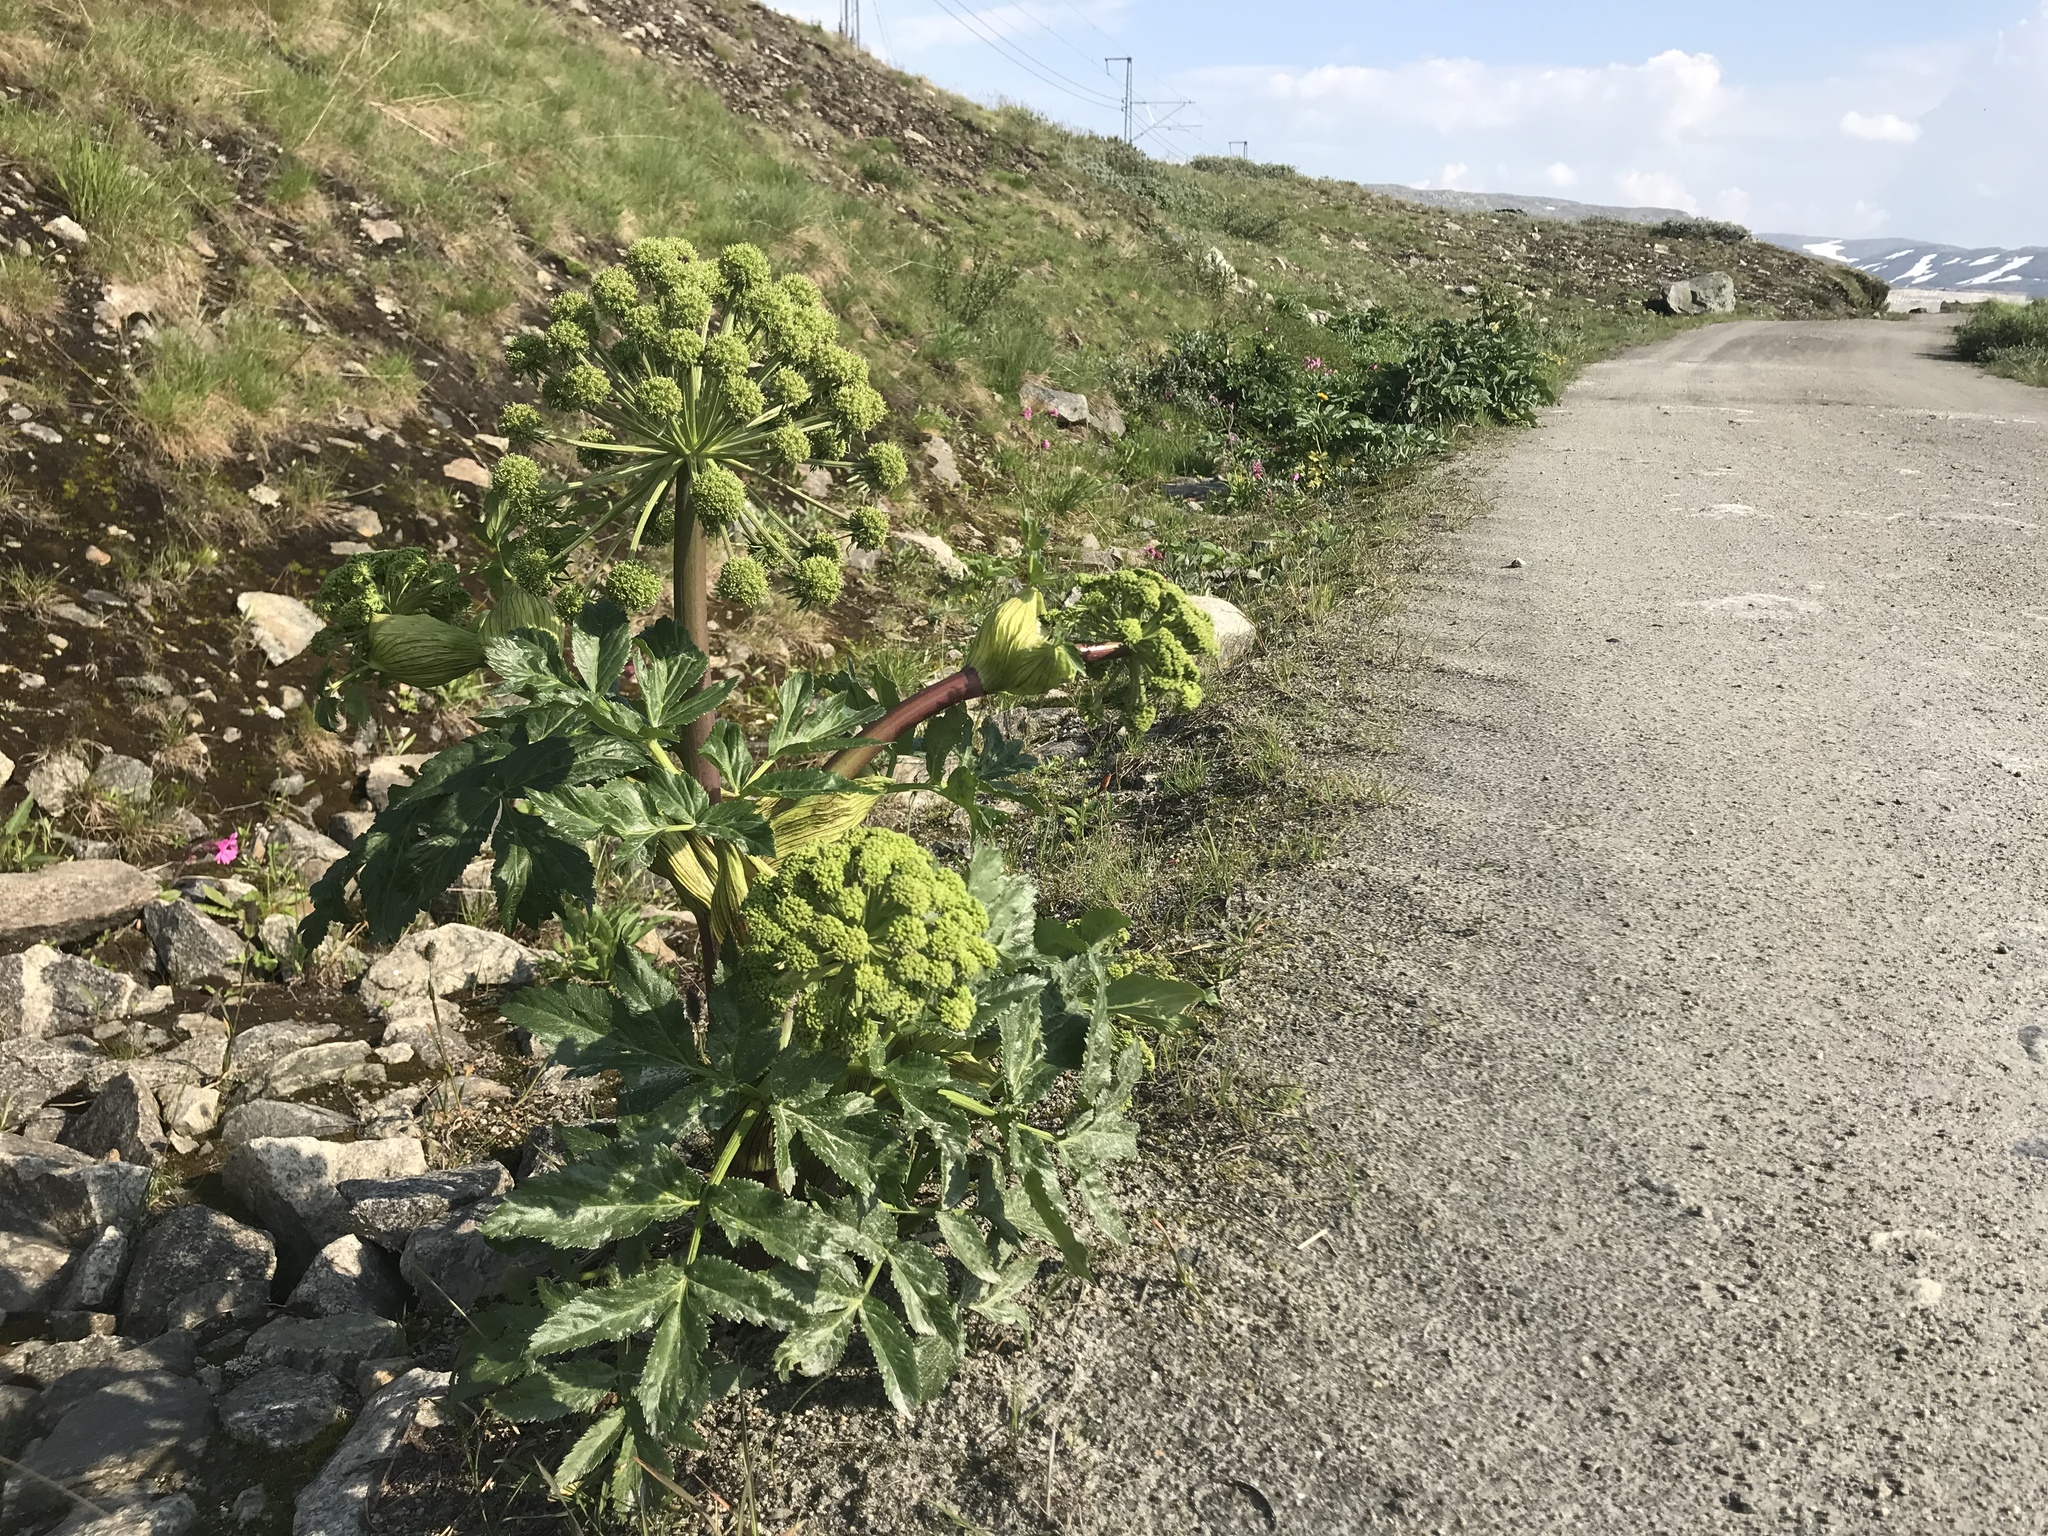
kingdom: Plantae
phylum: Tracheophyta
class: Magnoliopsida
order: Apiales
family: Apiaceae
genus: Angelica
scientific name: Angelica archangelica
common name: Garden angelica
